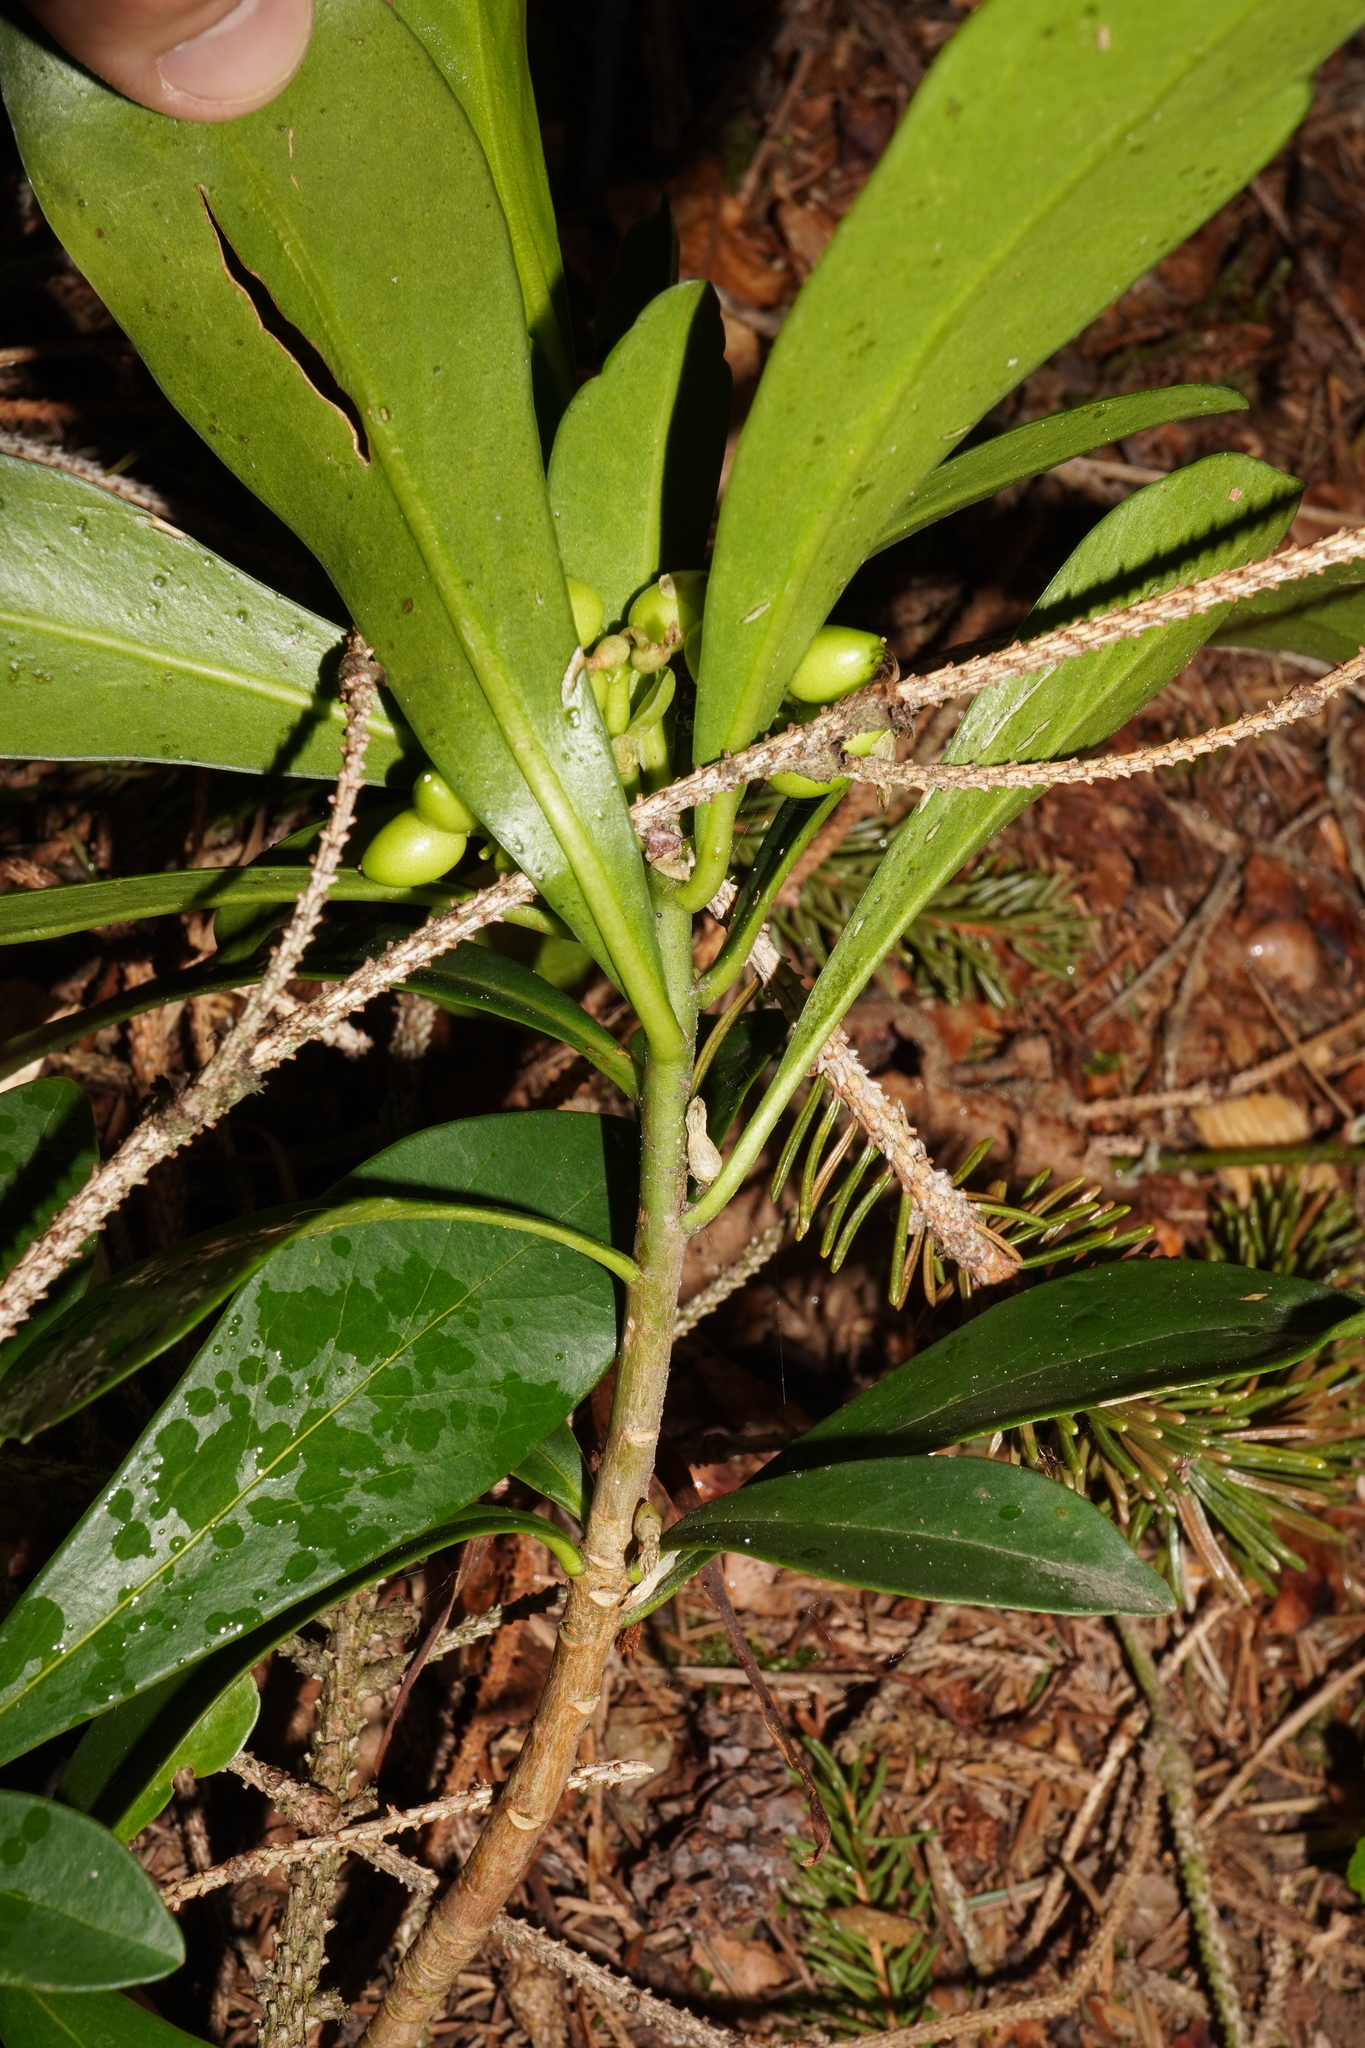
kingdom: Plantae
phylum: Tracheophyta
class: Magnoliopsida
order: Malvales
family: Thymelaeaceae
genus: Daphne
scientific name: Daphne laureola
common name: Spurge-laurel
